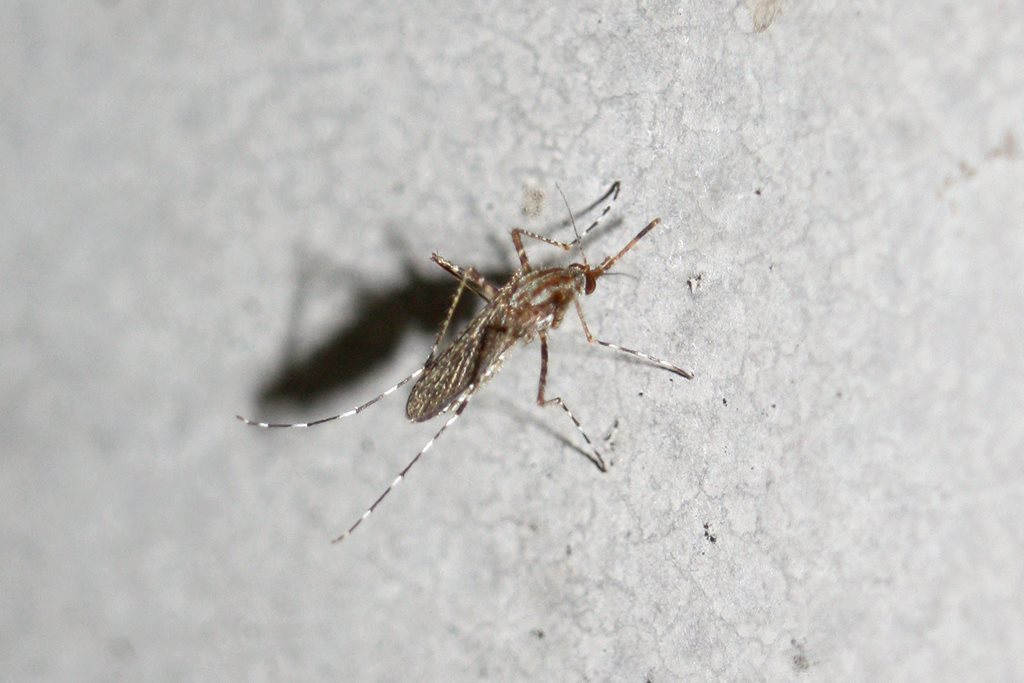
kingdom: Animalia
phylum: Arthropoda
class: Insecta
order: Diptera
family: Culicidae
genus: Aedes
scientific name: Aedes vigilax
